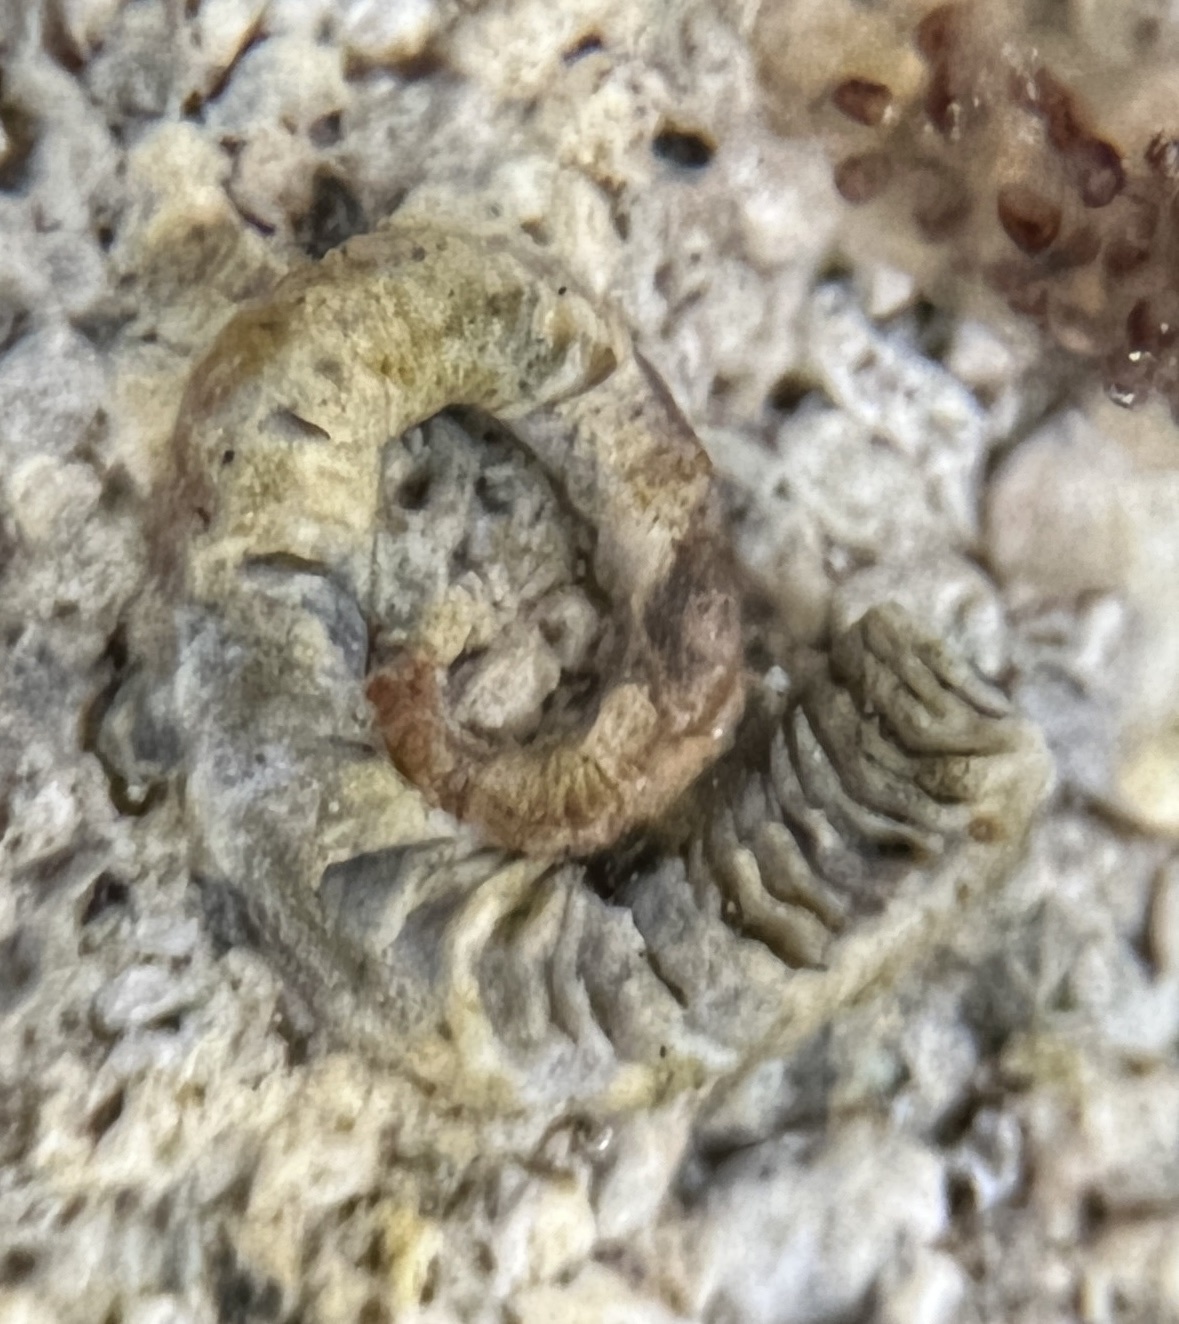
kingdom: Animalia
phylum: Mollusca
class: Gastropoda
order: Littorinimorpha
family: Vermetidae
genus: Dendropoma
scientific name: Dendropoma corrodens
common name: Ringed wormsnail
